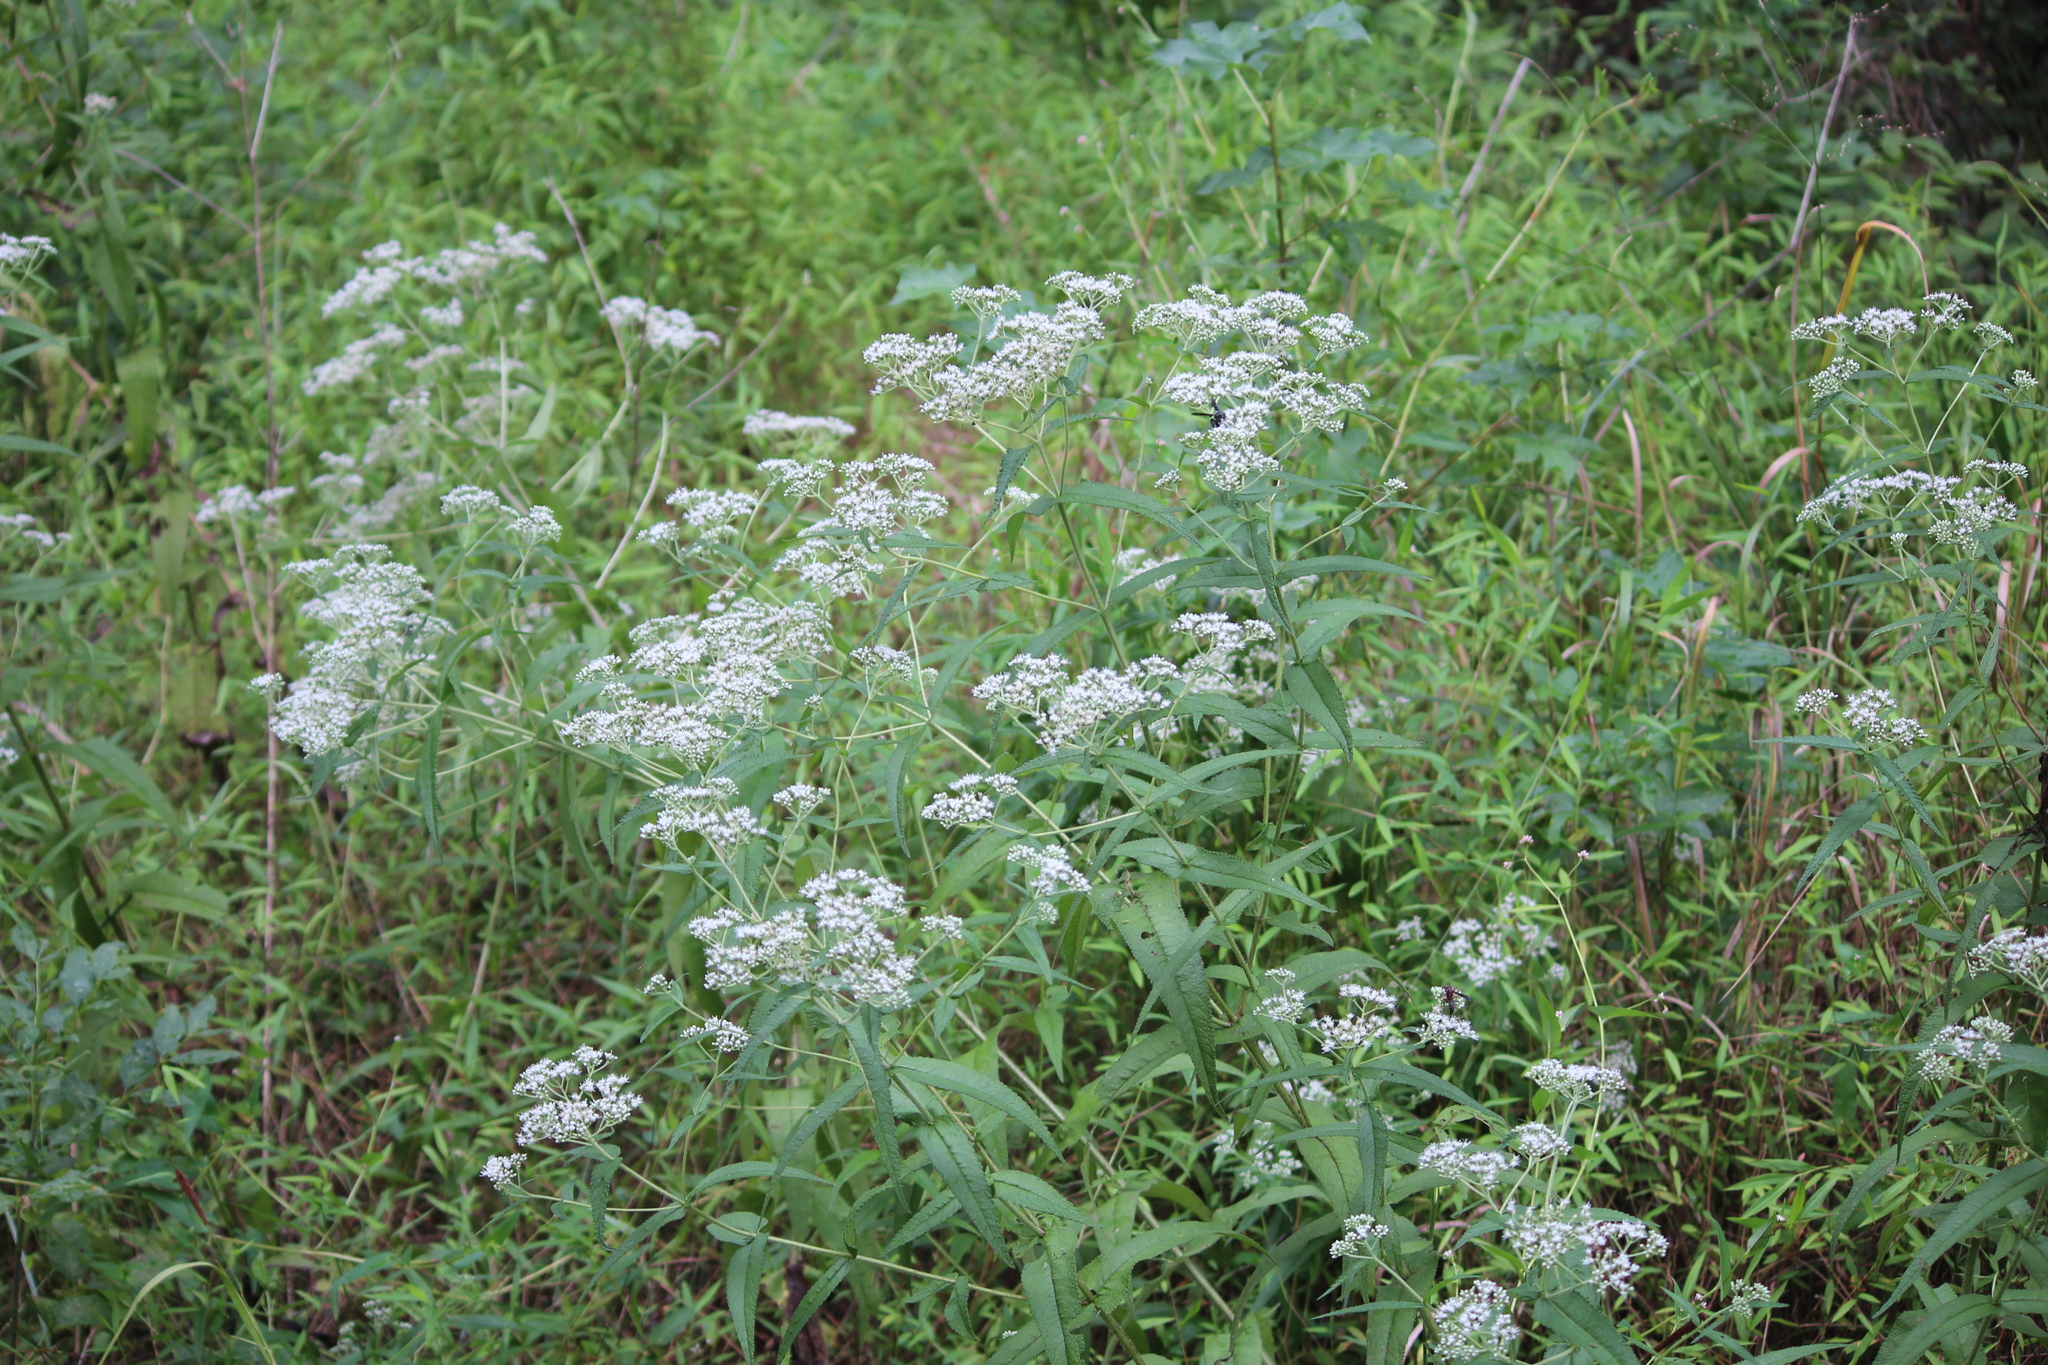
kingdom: Plantae
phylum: Tracheophyta
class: Magnoliopsida
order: Asterales
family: Asteraceae
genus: Eupatorium
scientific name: Eupatorium perfoliatum
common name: Boneset
